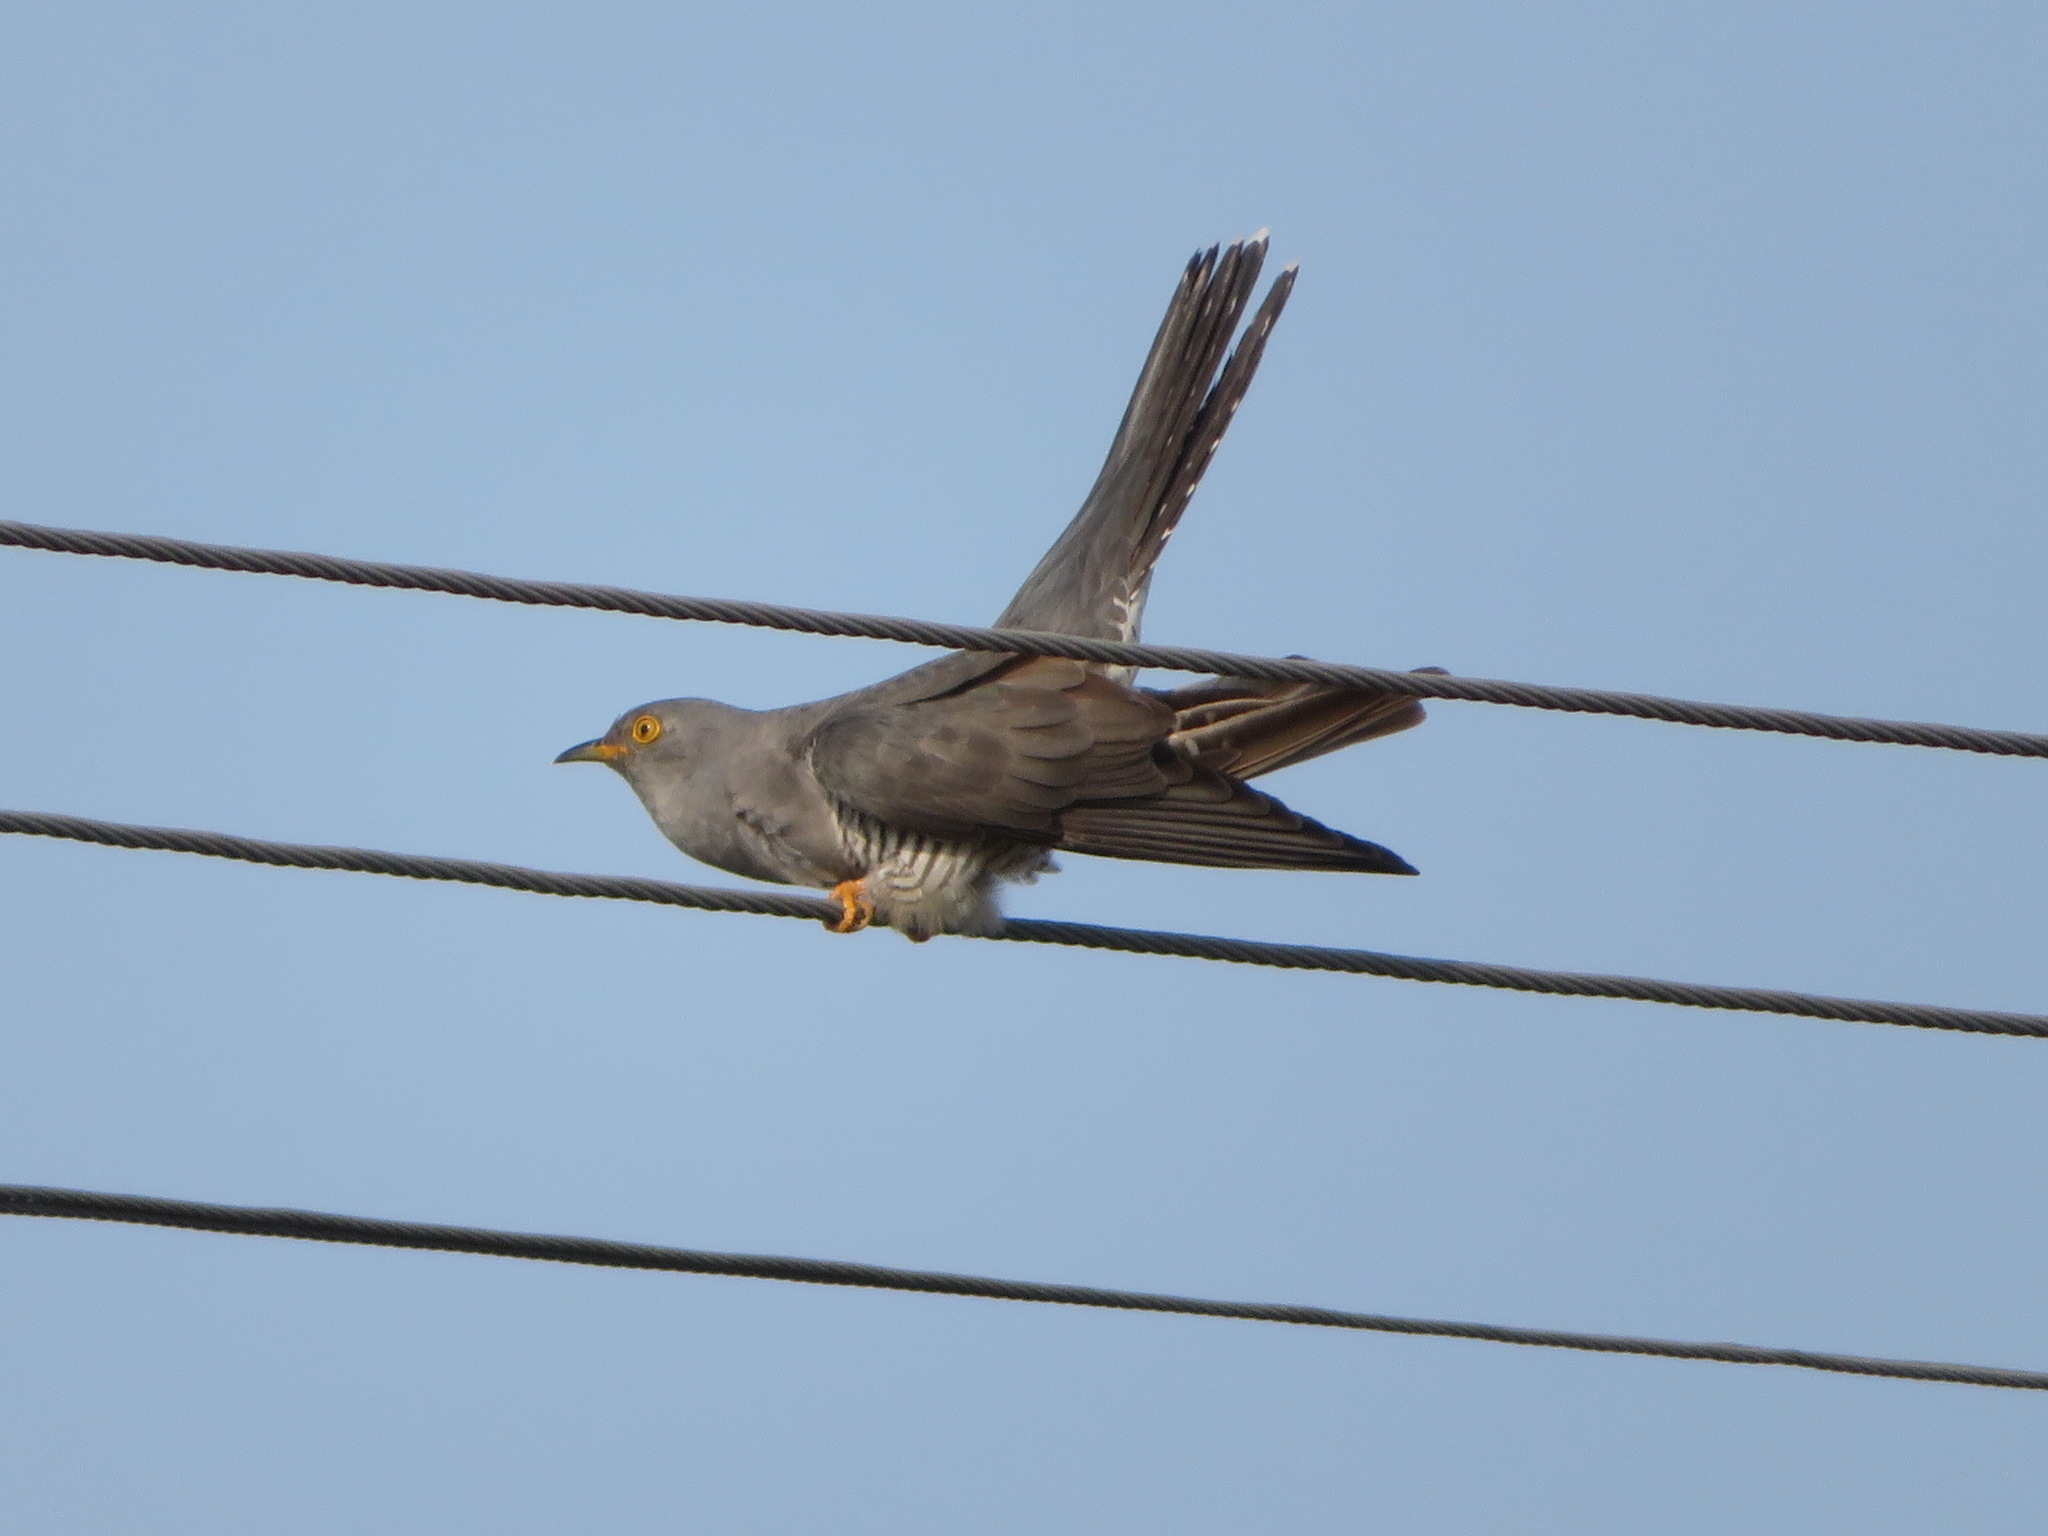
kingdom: Animalia
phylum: Chordata
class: Aves
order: Cuculiformes
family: Cuculidae
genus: Cuculus
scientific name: Cuculus canorus
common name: Common cuckoo
